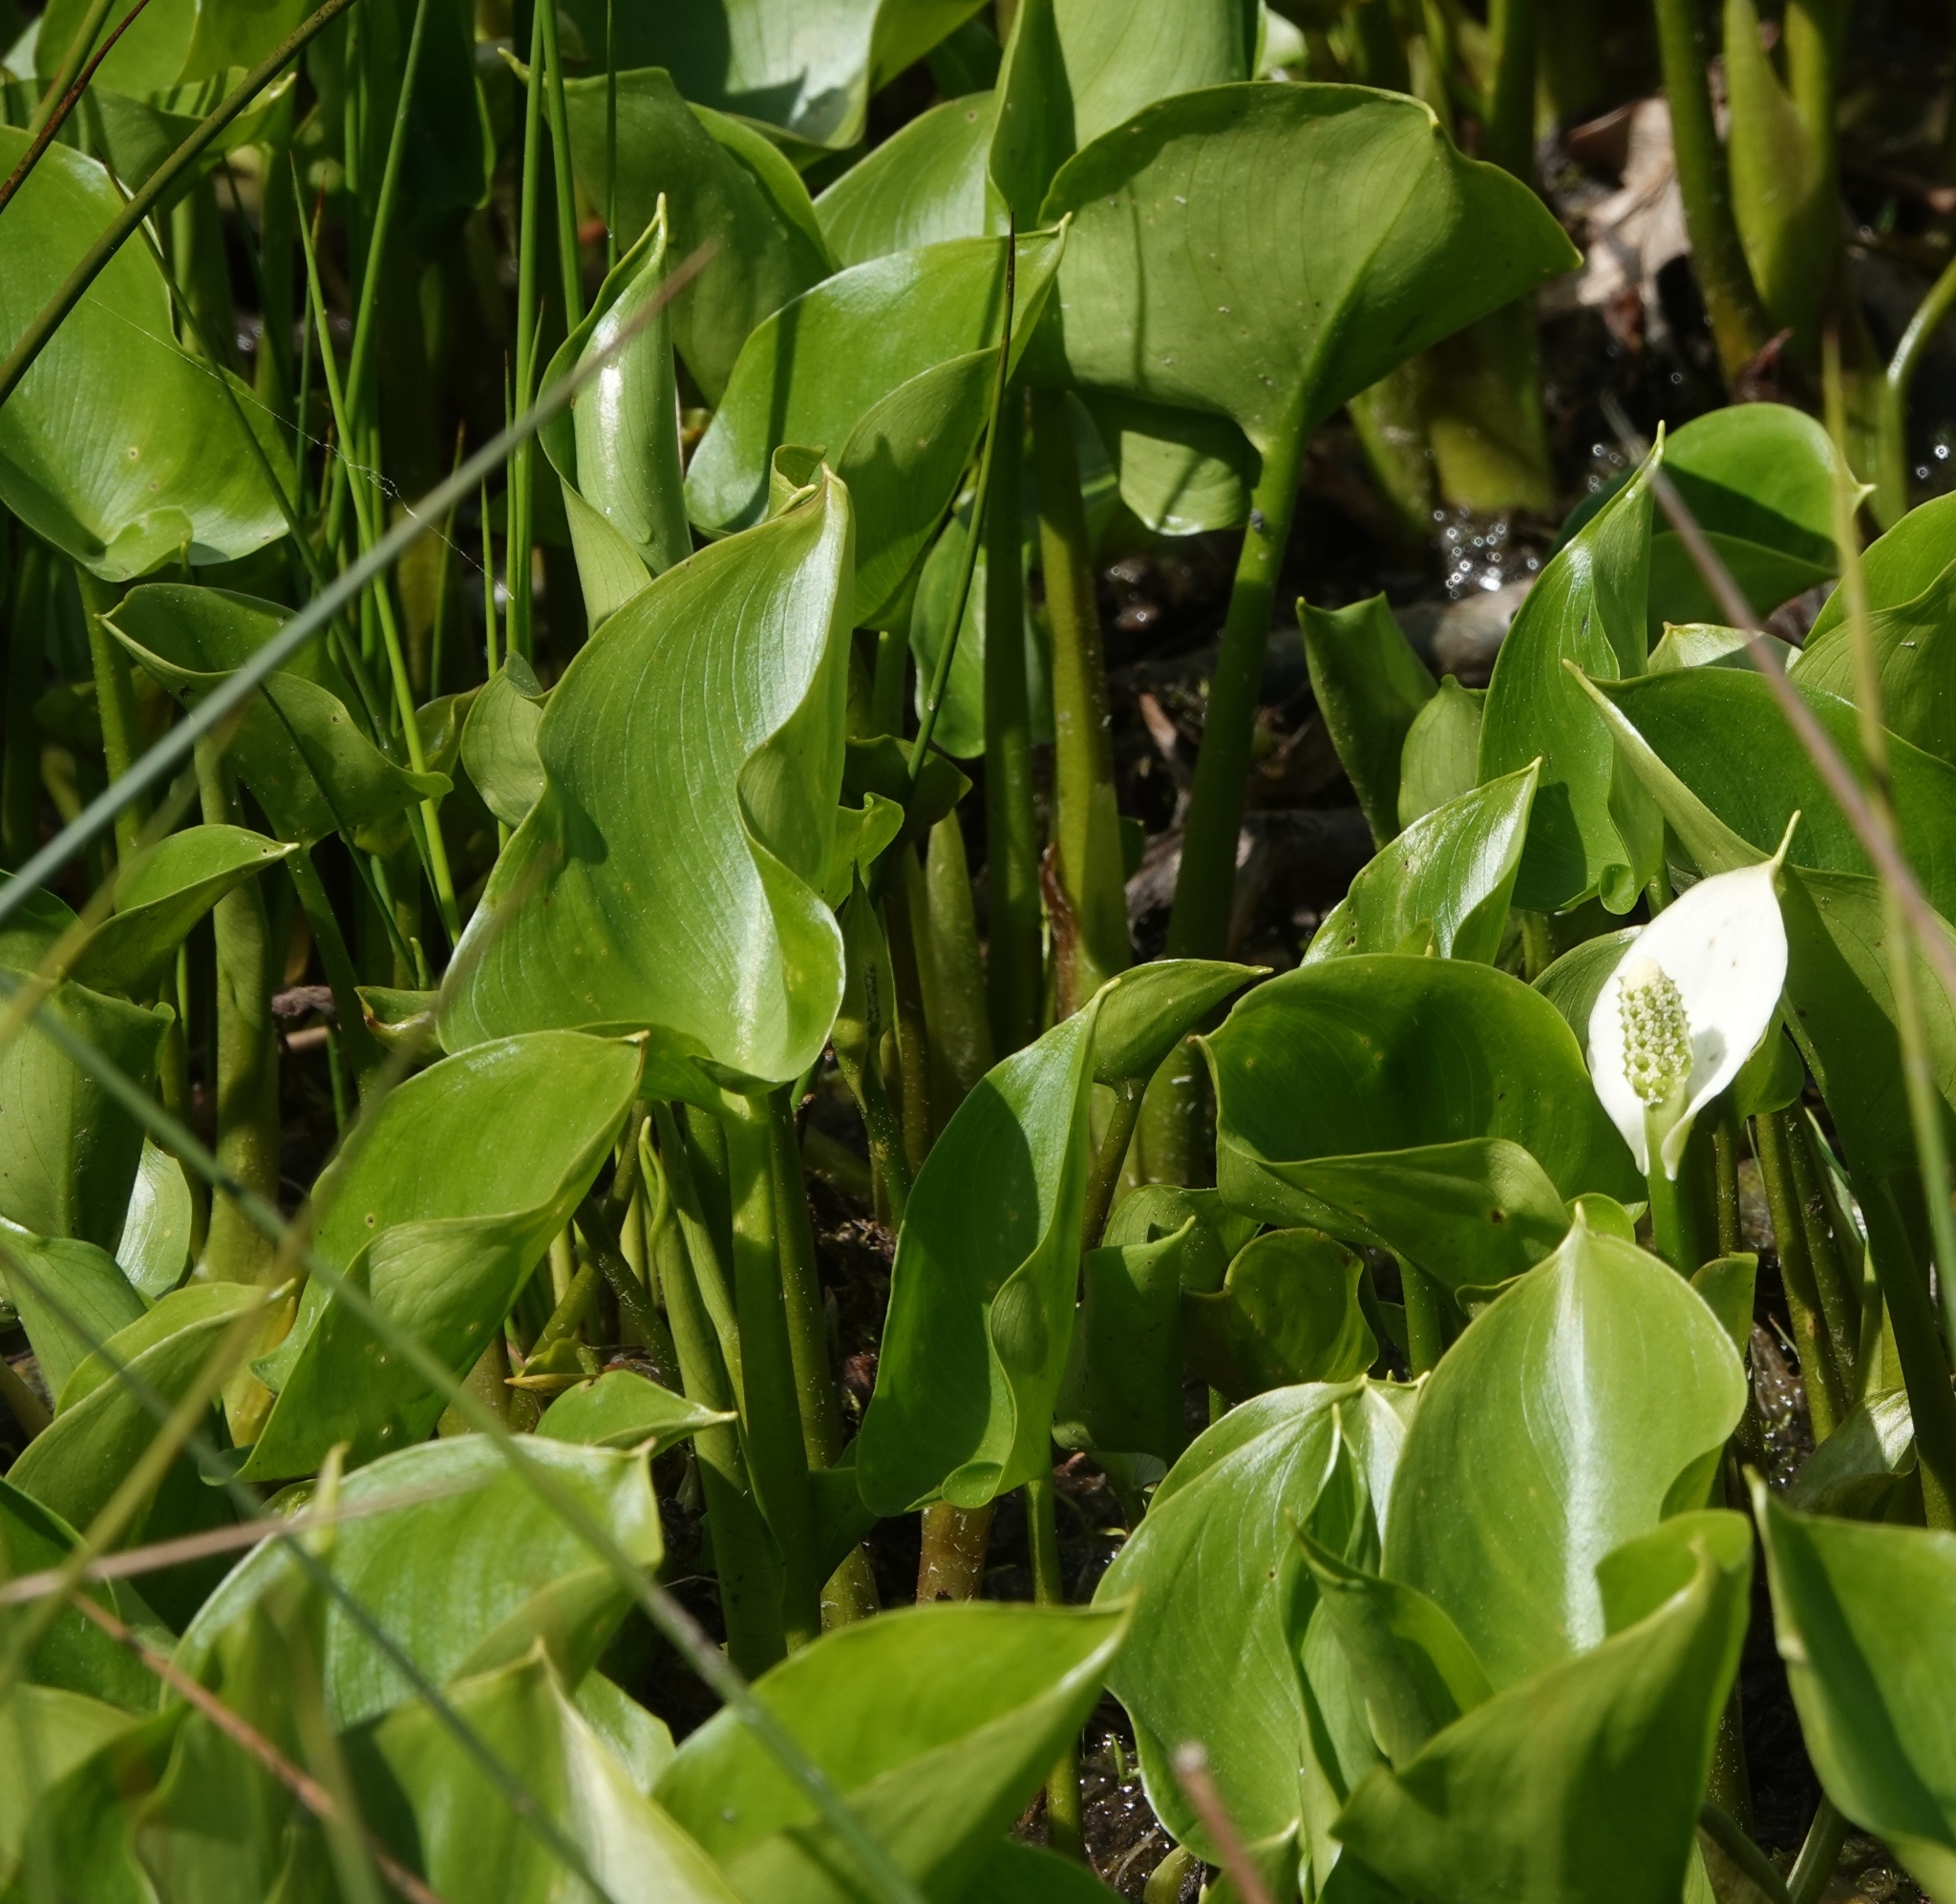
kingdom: Plantae
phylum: Tracheophyta
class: Liliopsida
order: Alismatales
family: Araceae
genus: Calla
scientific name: Calla palustris
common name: Bog arum
